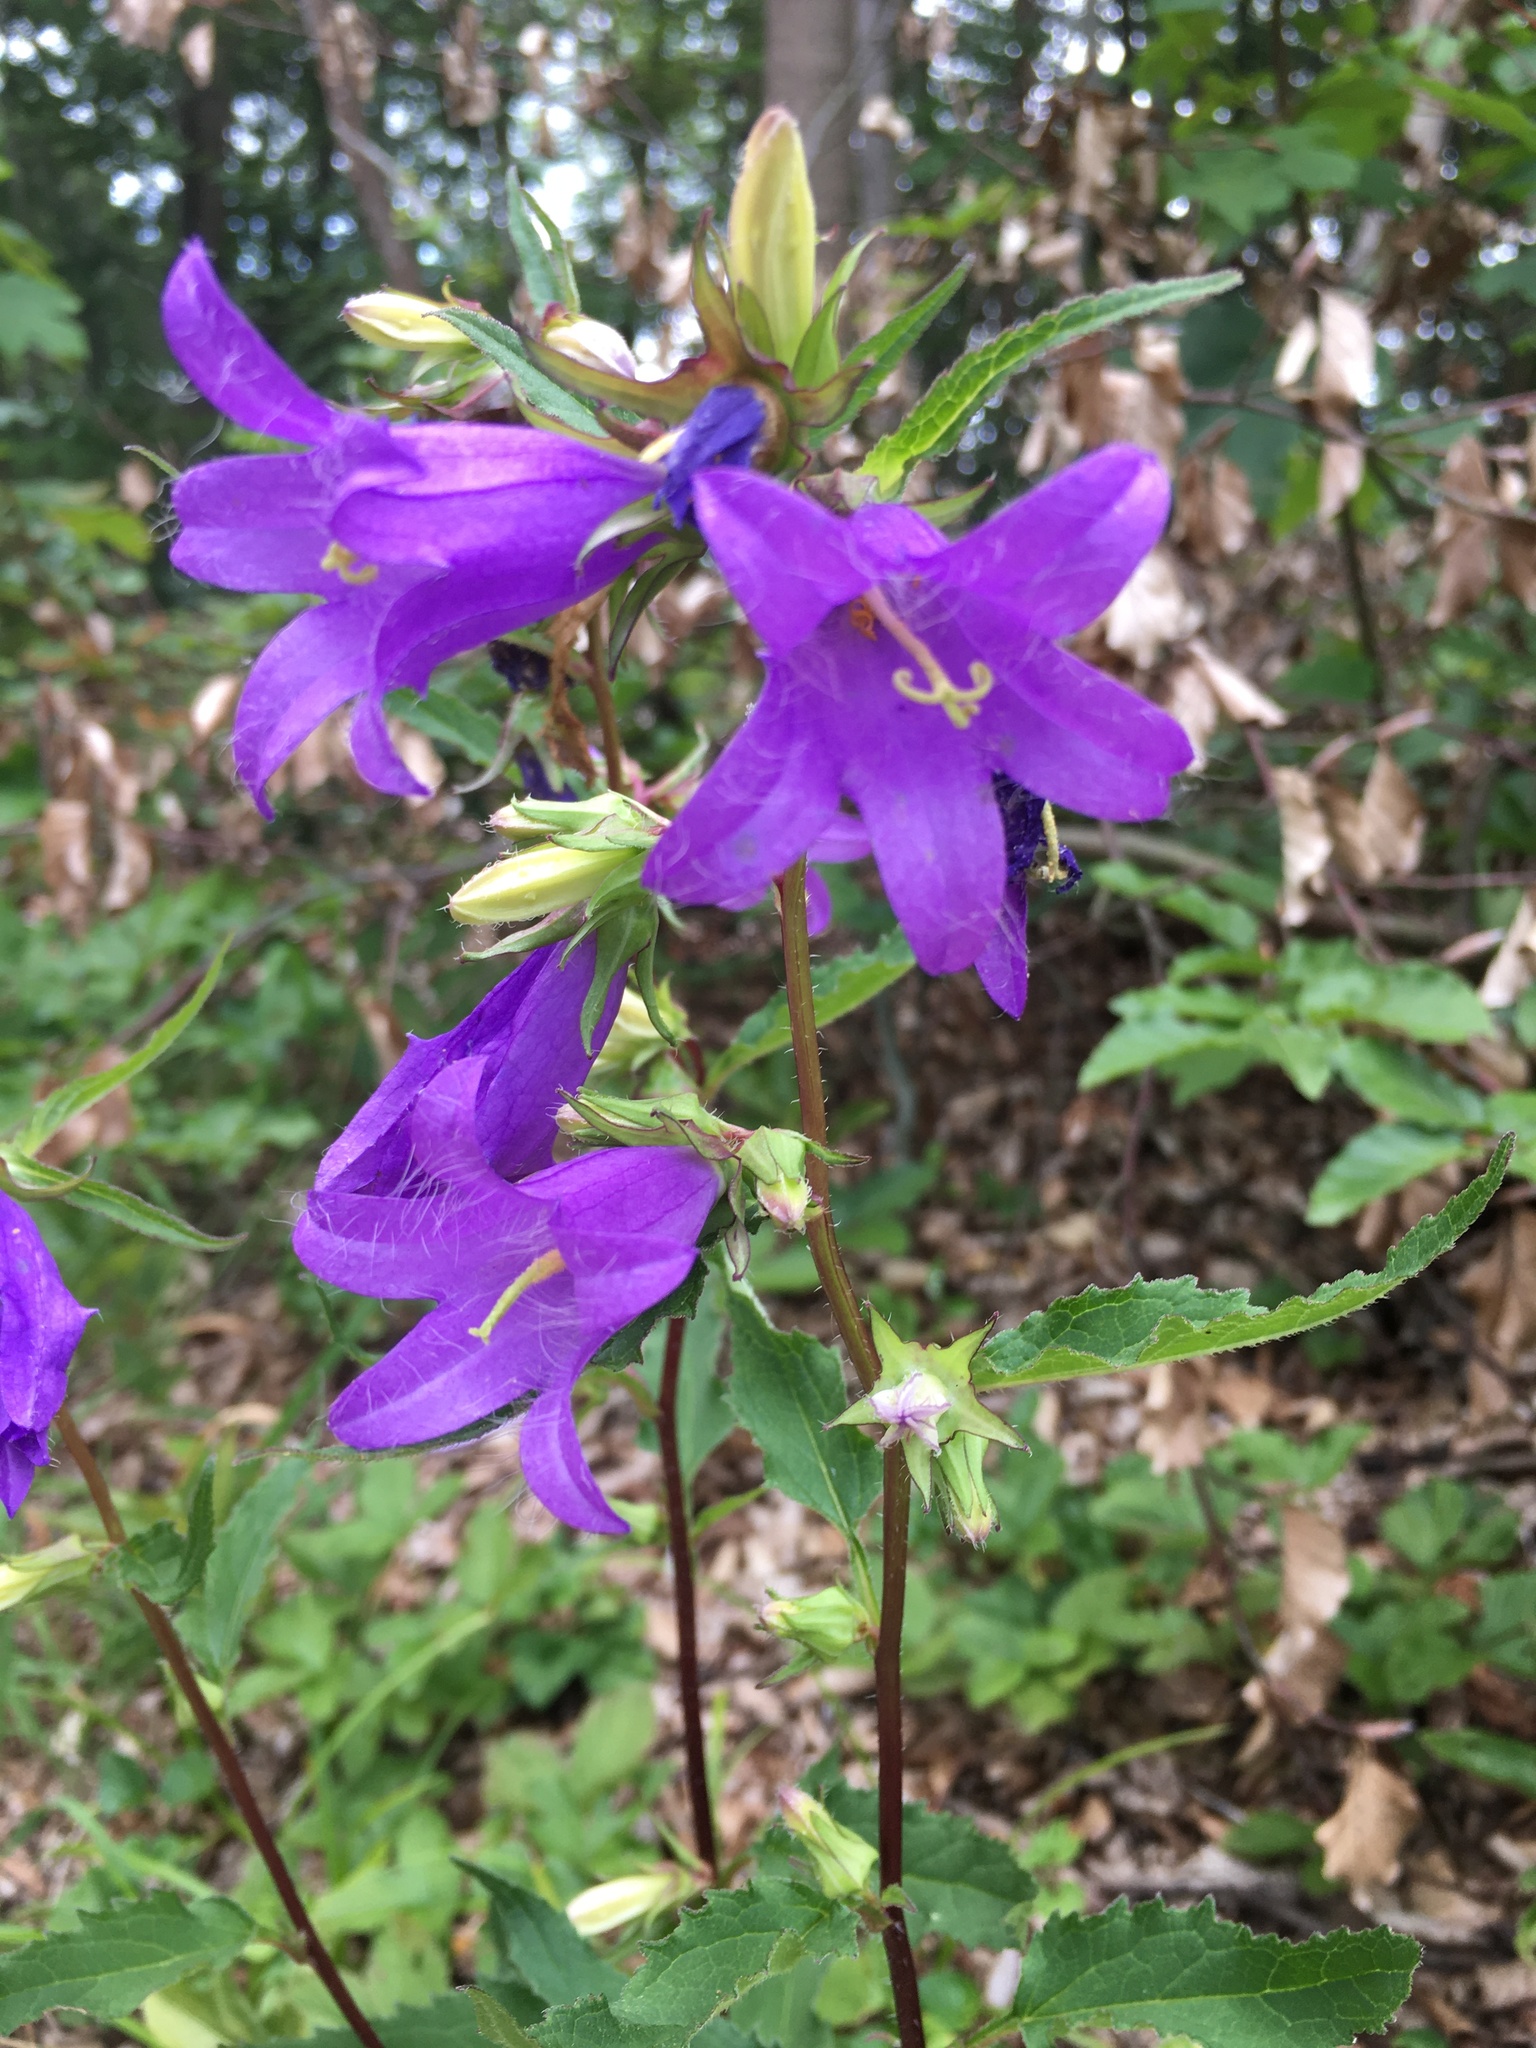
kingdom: Plantae
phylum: Tracheophyta
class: Magnoliopsida
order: Asterales
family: Campanulaceae
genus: Campanula
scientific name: Campanula trachelium
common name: Nettle-leaved bellflower
